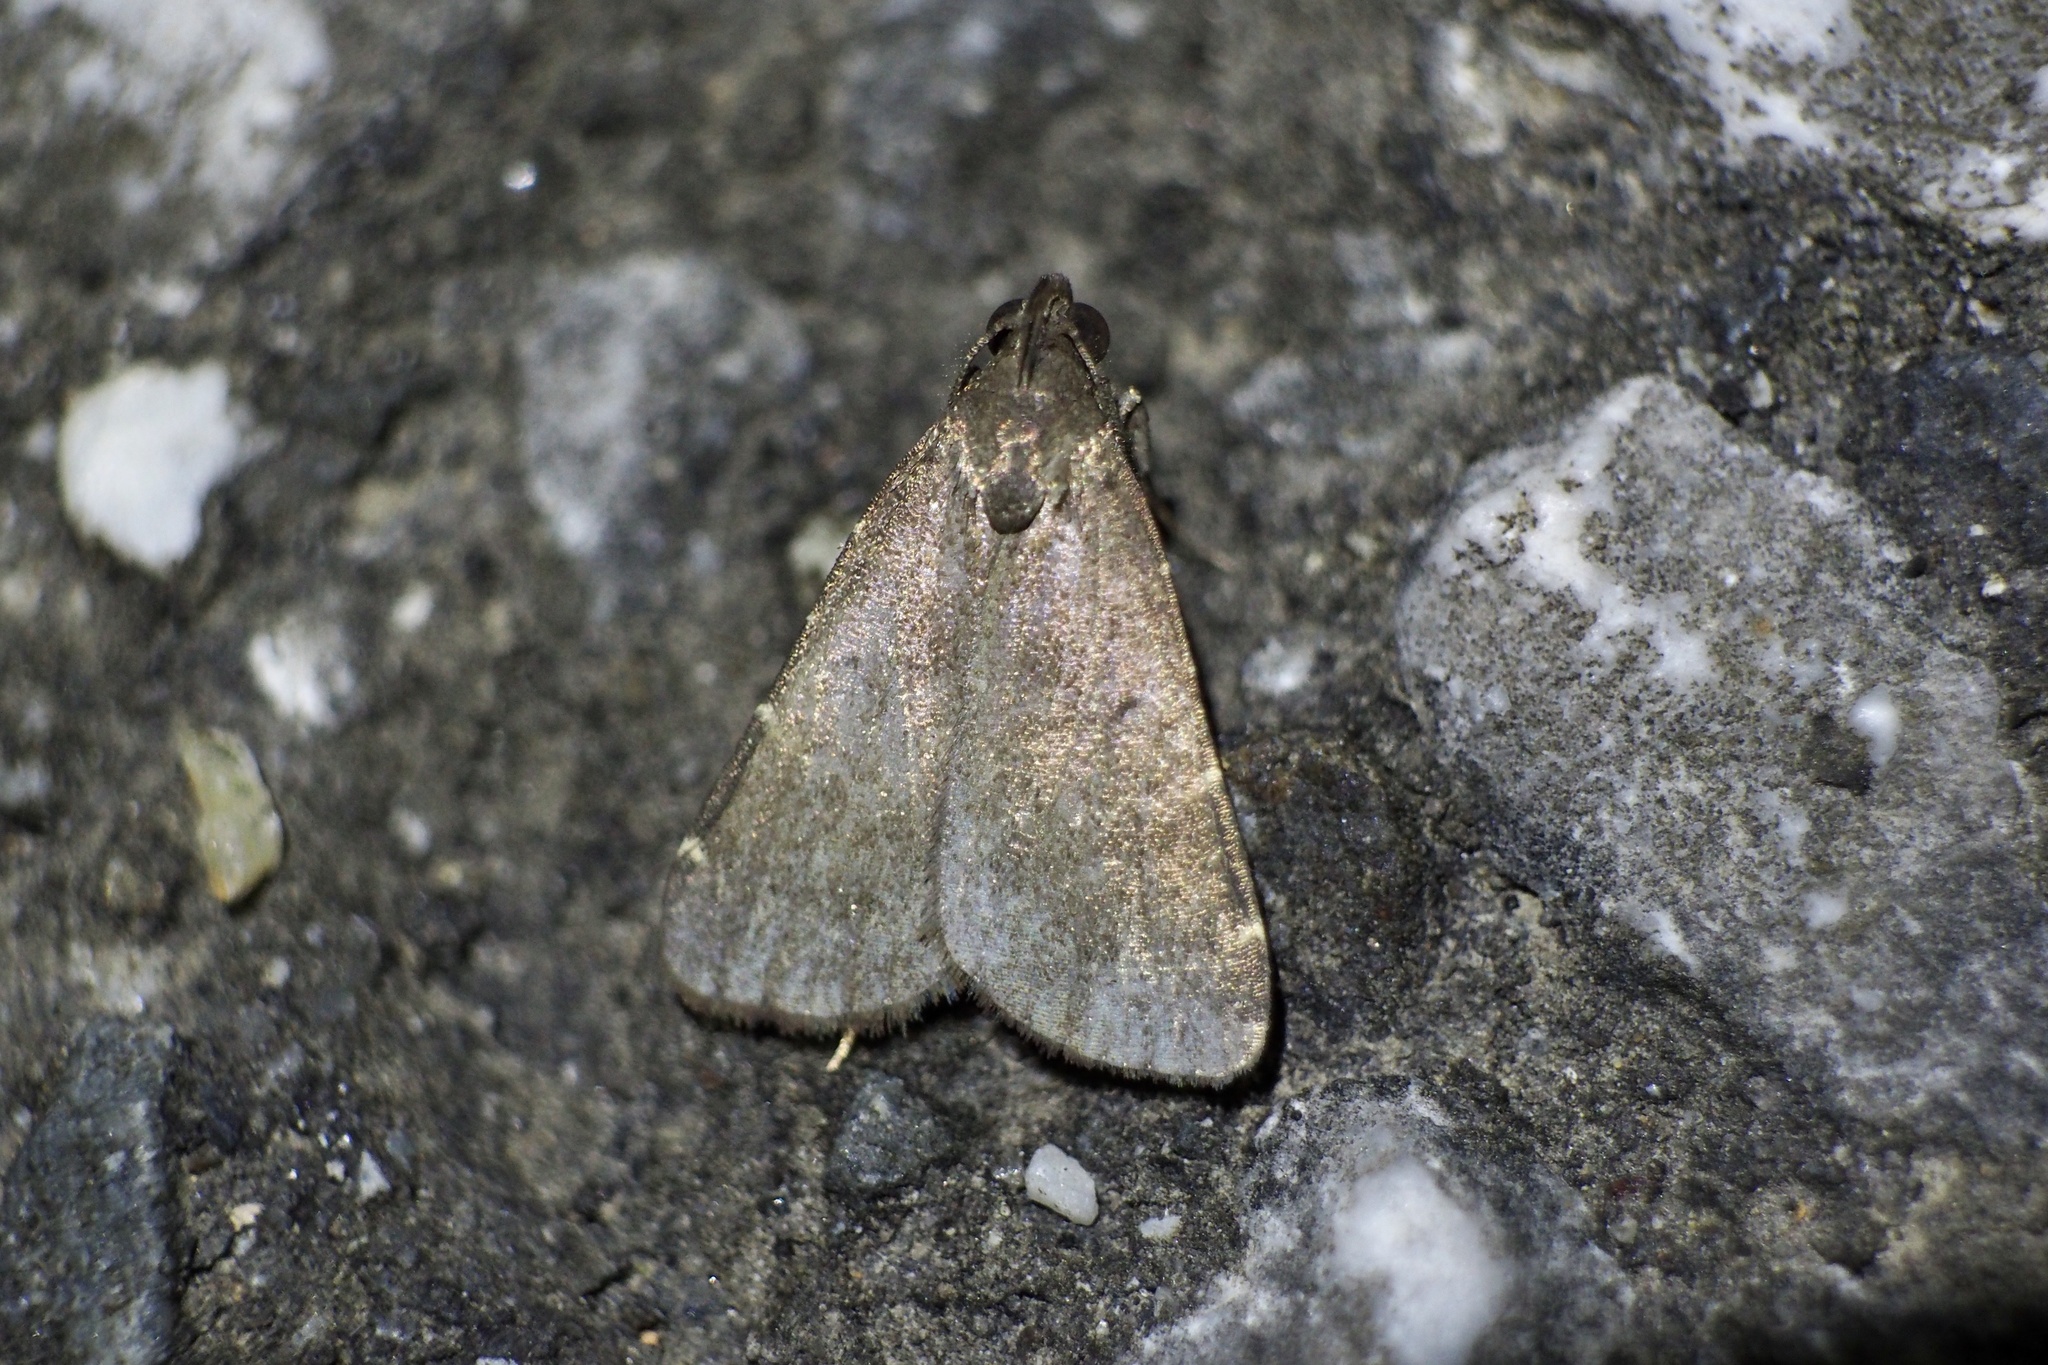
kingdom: Animalia
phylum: Arthropoda
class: Insecta
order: Lepidoptera
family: Erebidae
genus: Hydrillodes
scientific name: Hydrillodes lentalis
